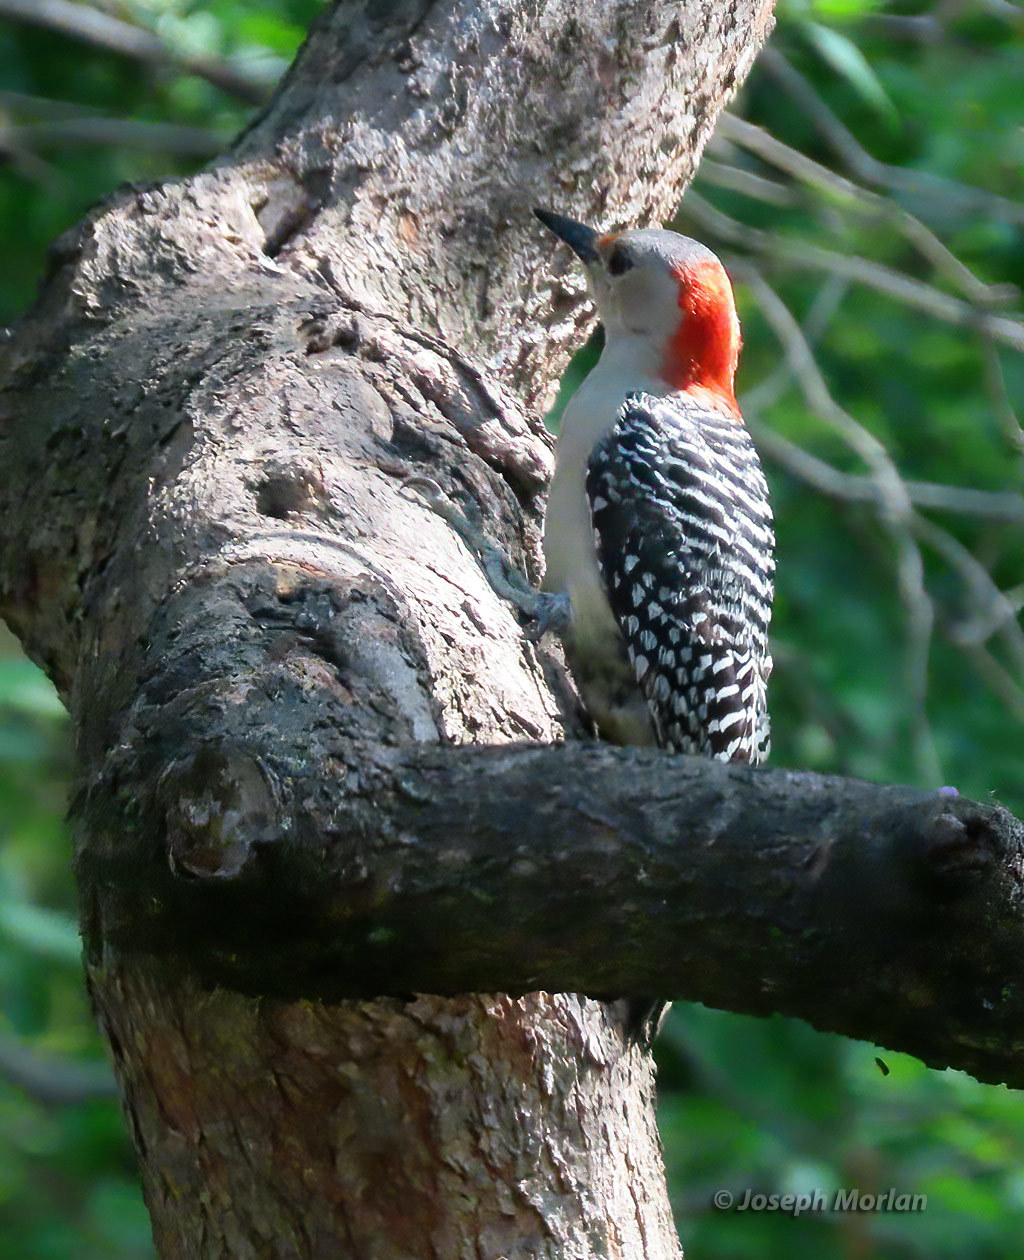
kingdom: Animalia
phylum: Chordata
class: Aves
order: Piciformes
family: Picidae
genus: Melanerpes
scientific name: Melanerpes carolinus
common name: Red-bellied woodpecker
